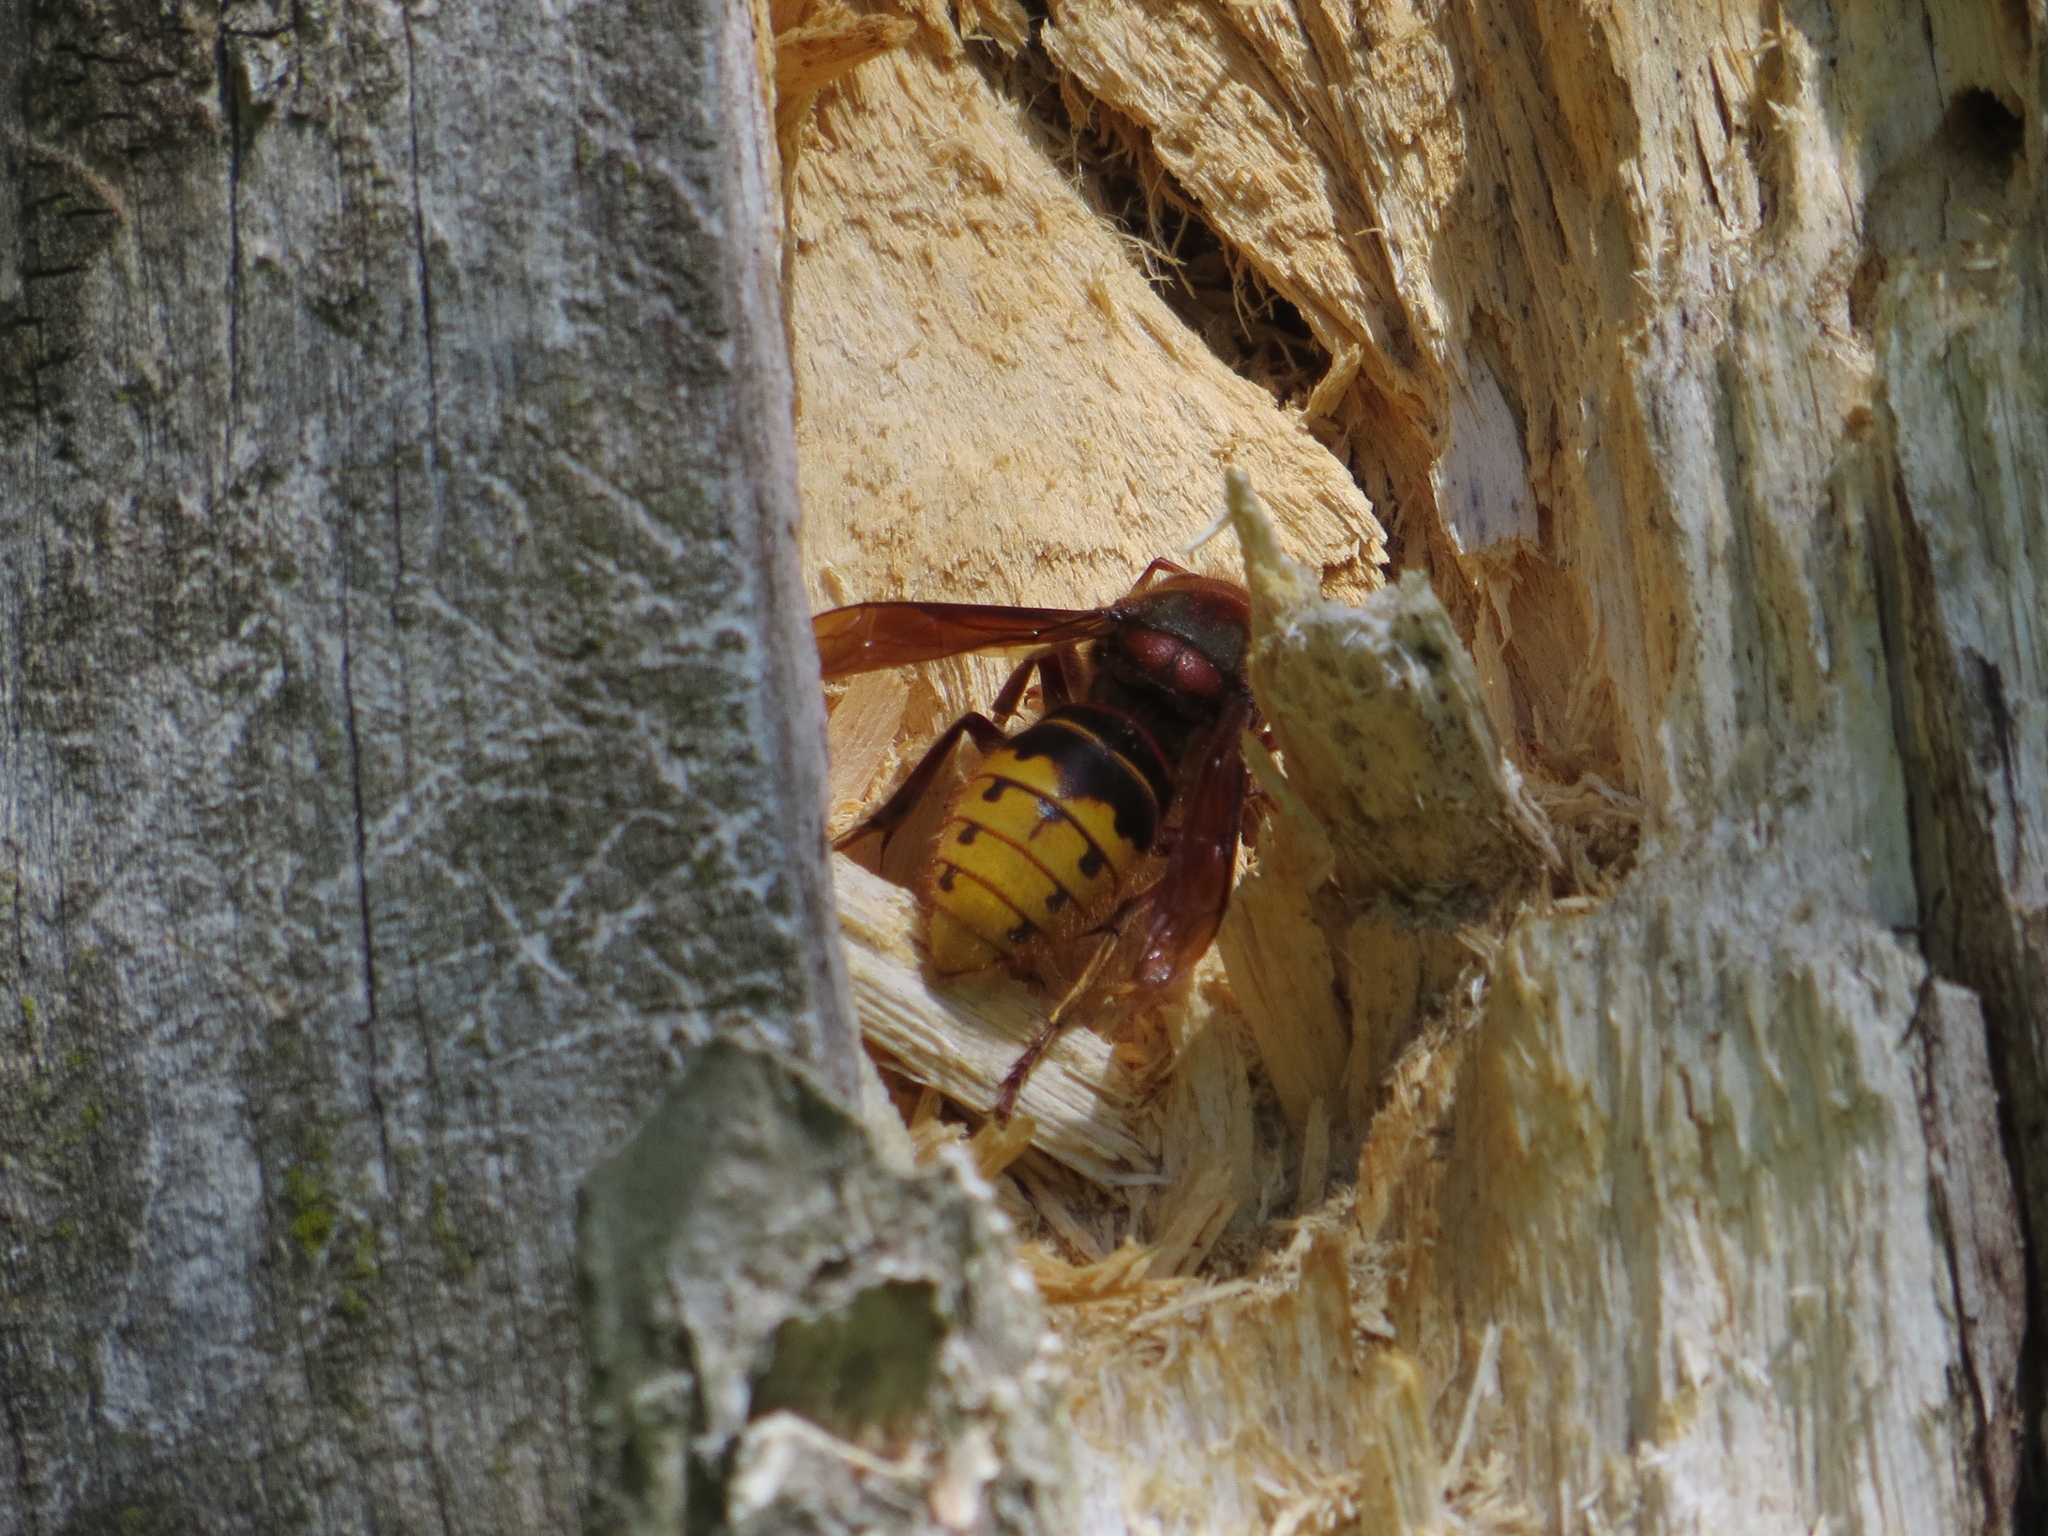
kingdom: Animalia
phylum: Arthropoda
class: Insecta
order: Hymenoptera
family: Vespidae
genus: Vespa
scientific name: Vespa crabro
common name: Hornet
